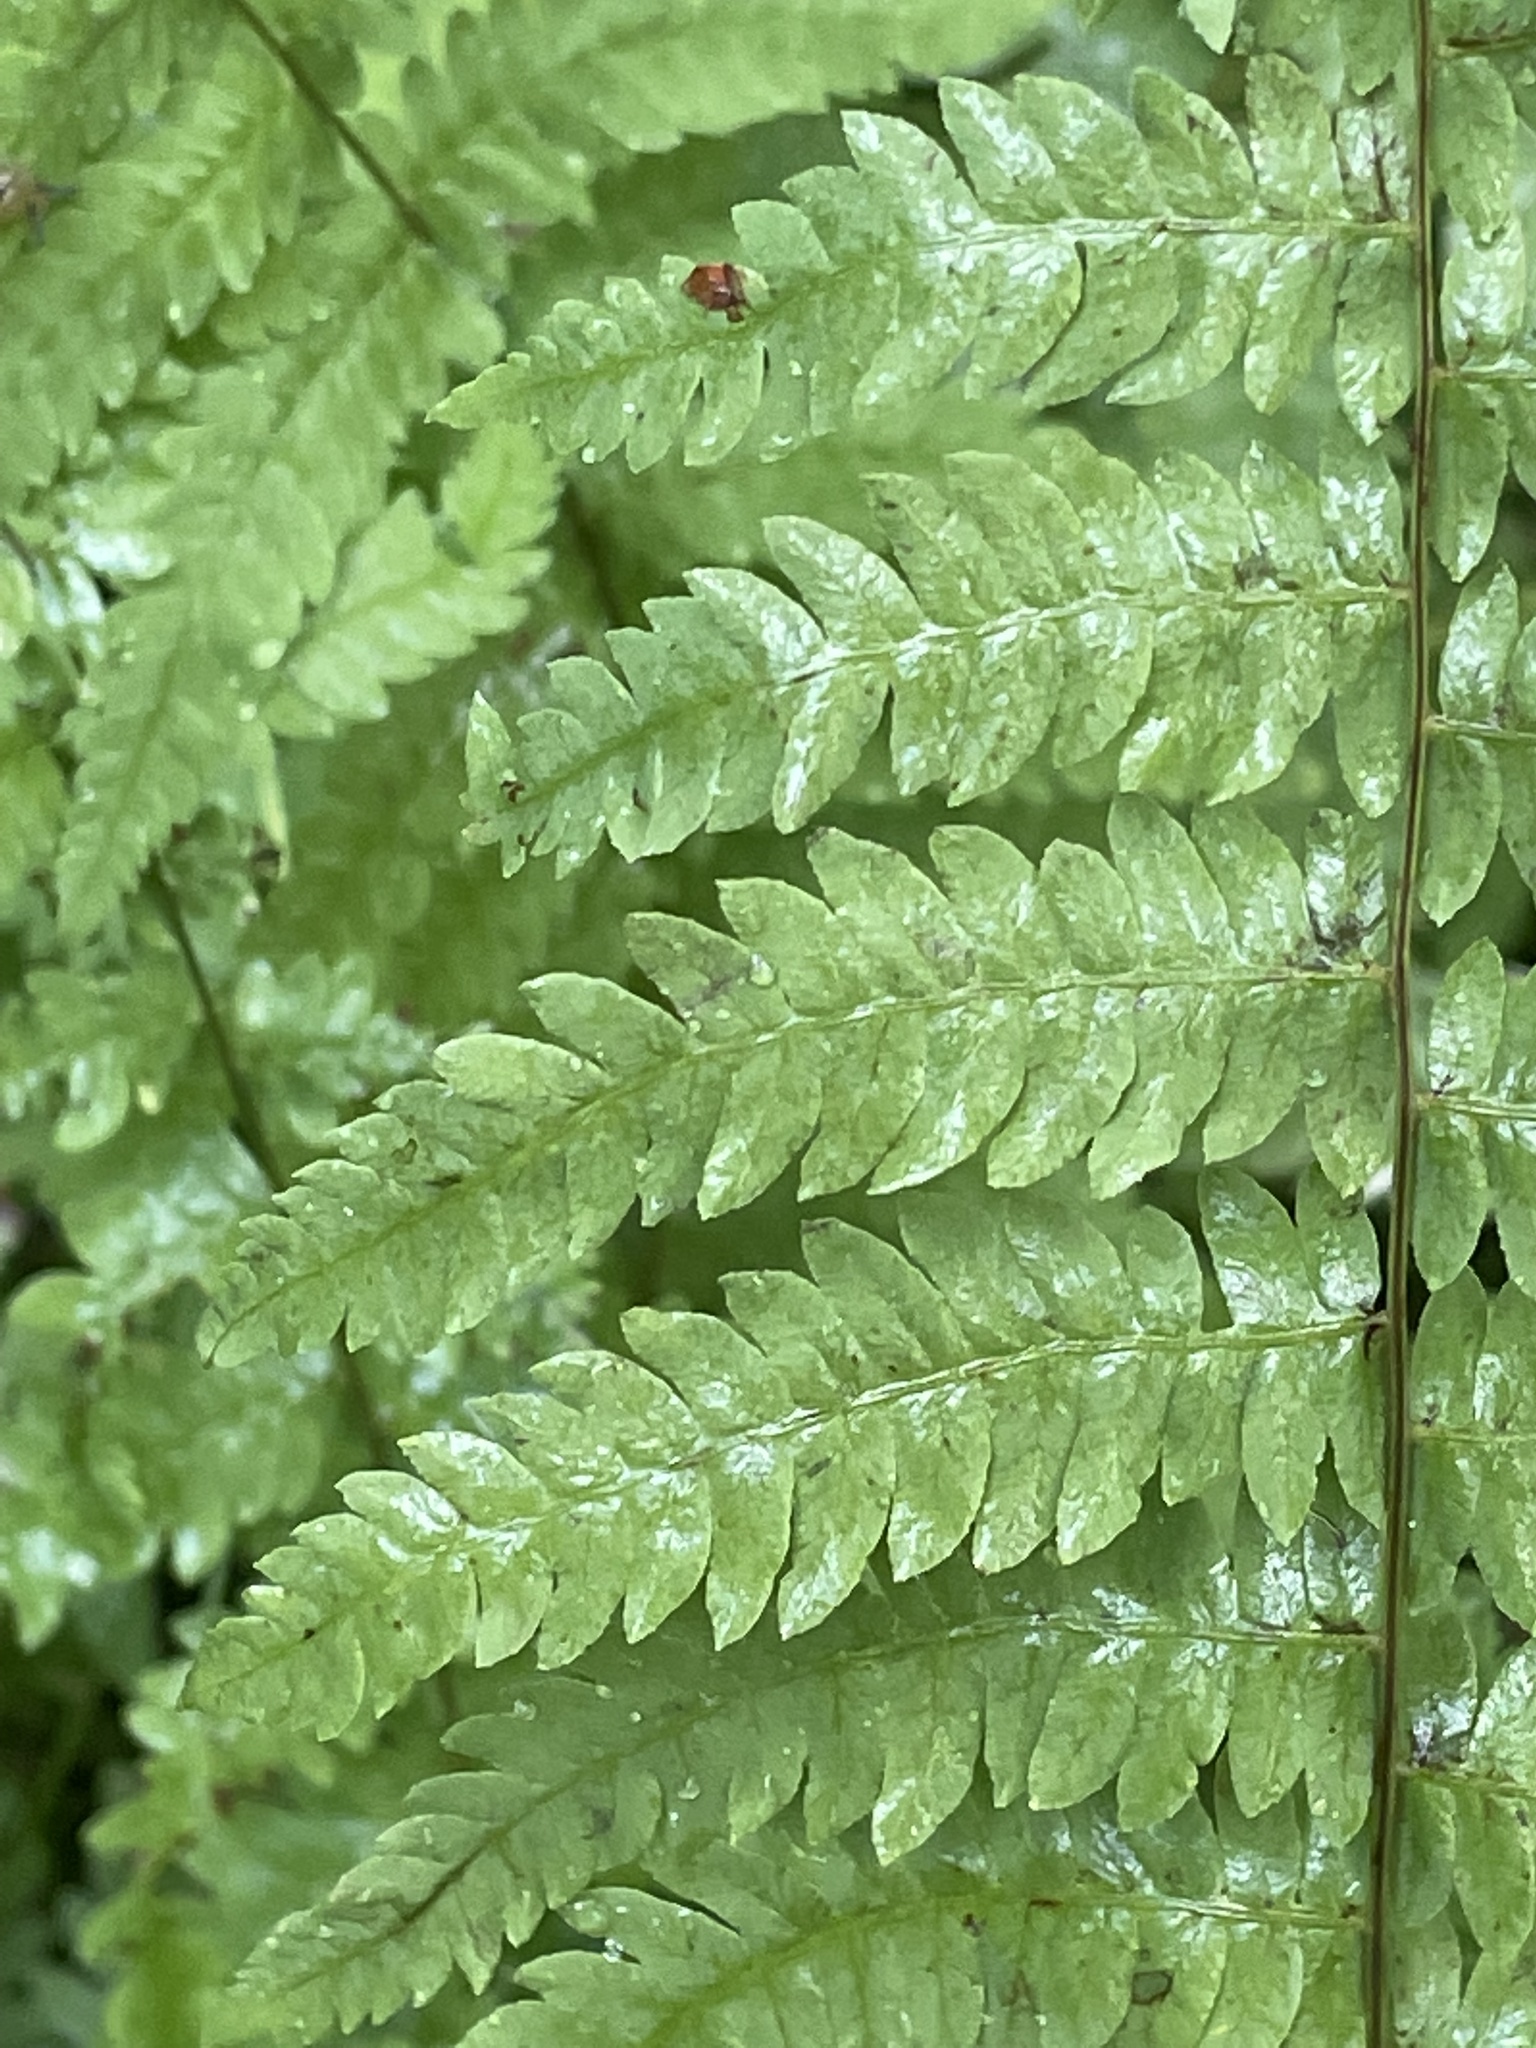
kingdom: Plantae
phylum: Tracheophyta
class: Polypodiopsida
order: Polypodiales
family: Thelypteridaceae
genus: Thelypteris
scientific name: Thelypteris palustris
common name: Marsh fern
